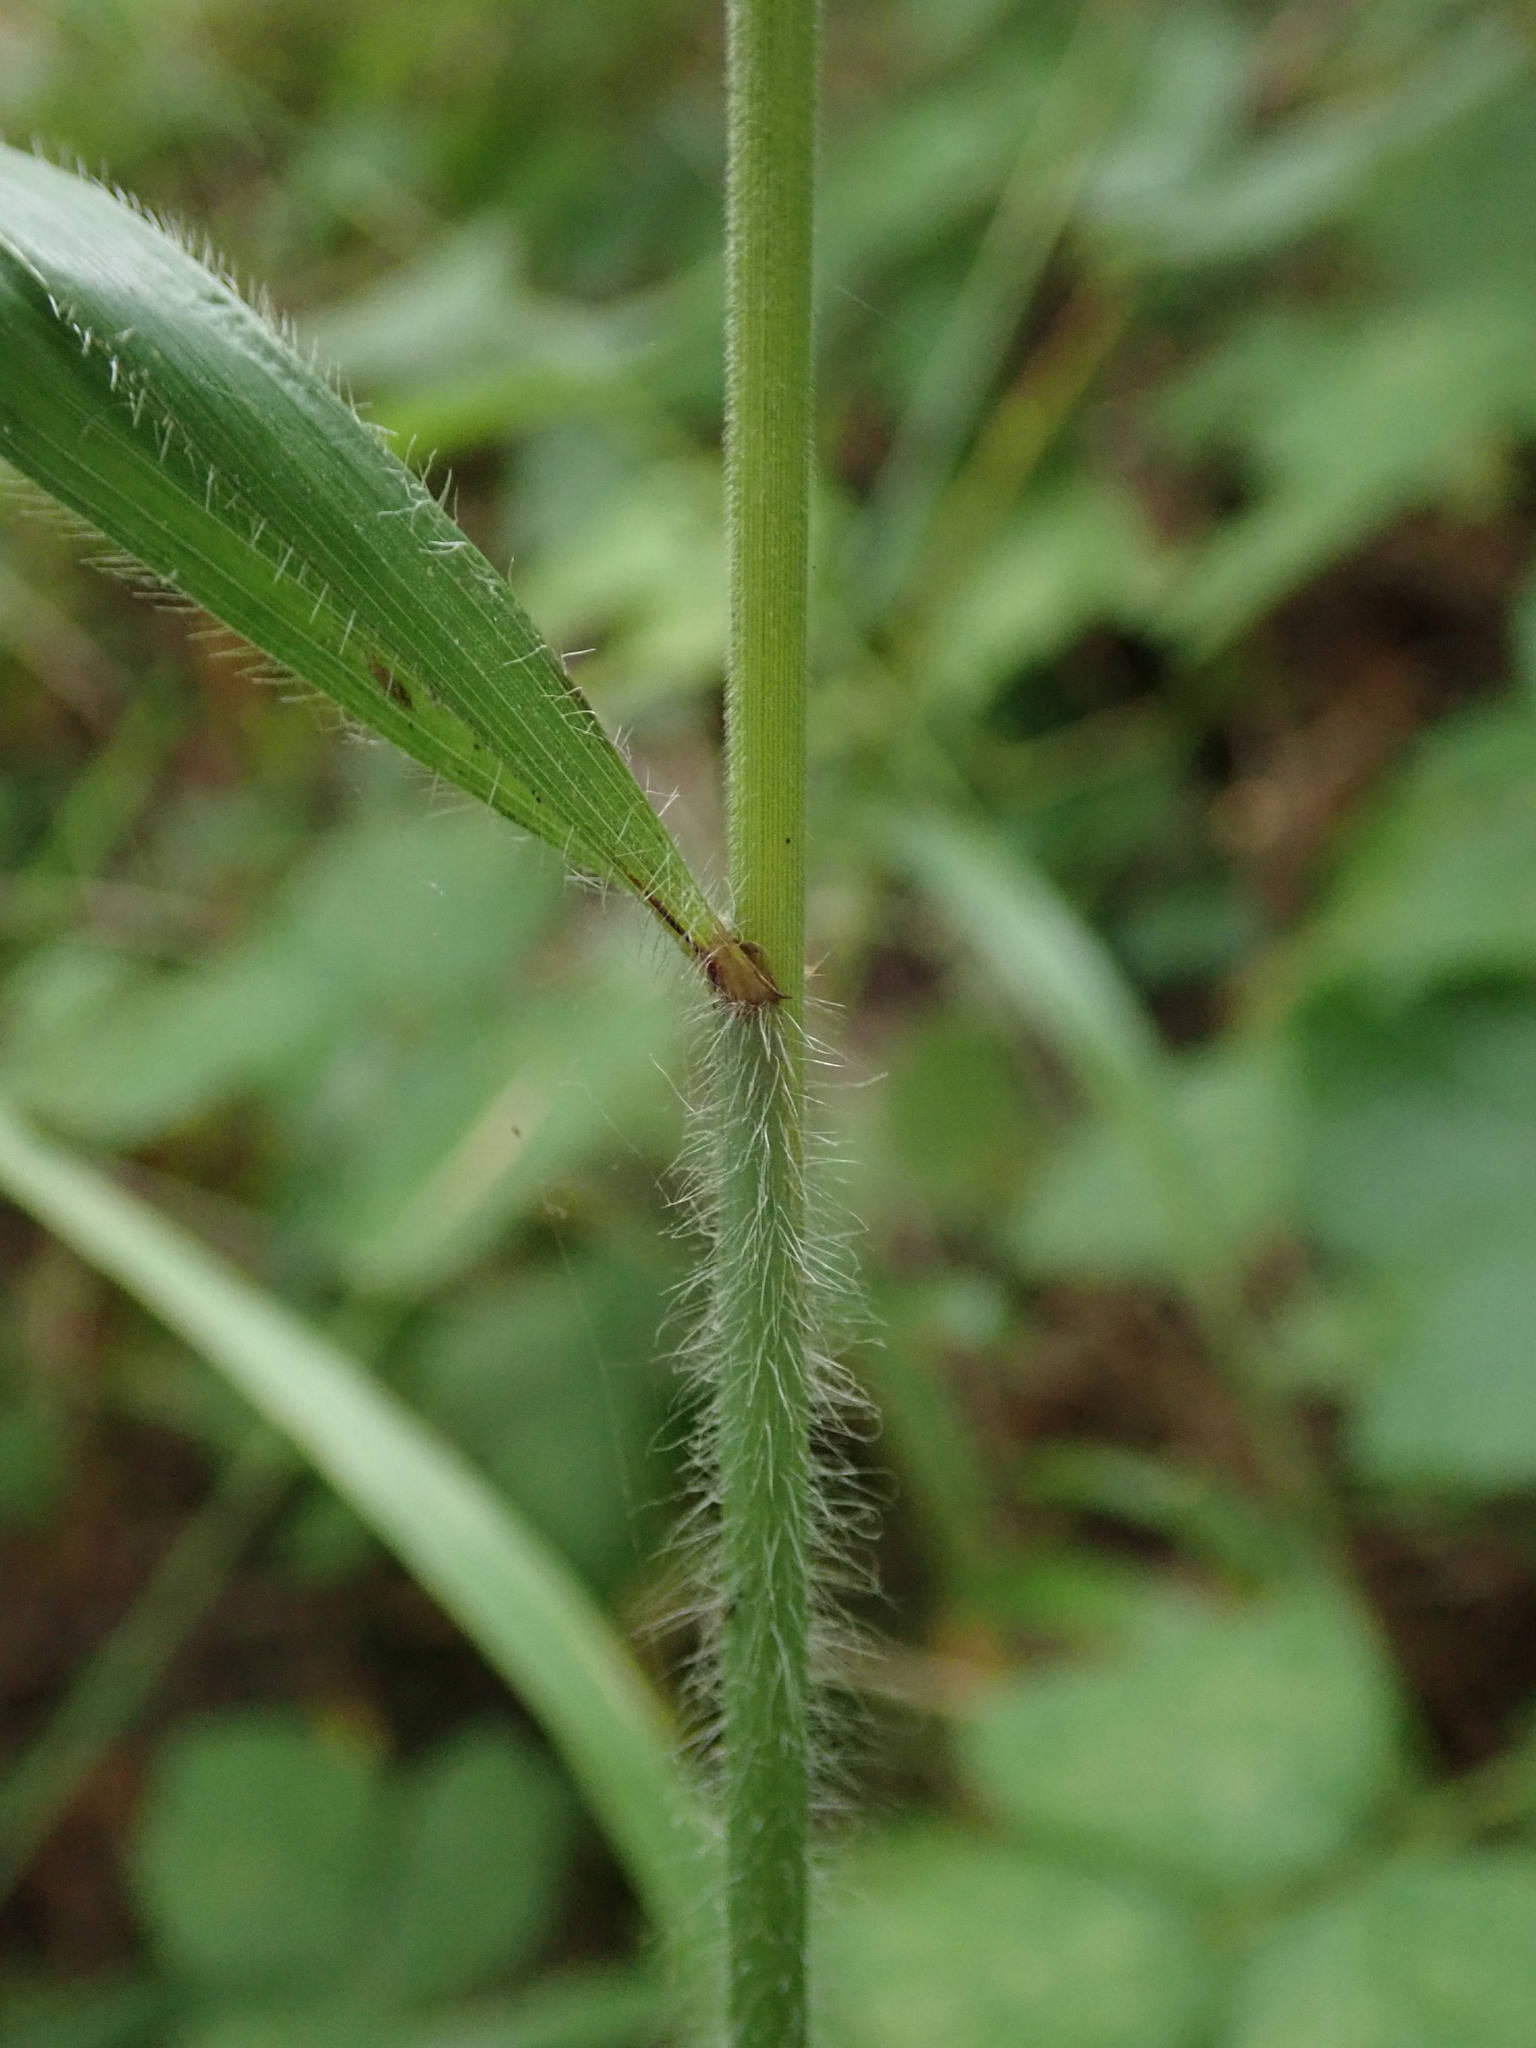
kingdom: Plantae
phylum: Tracheophyta
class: Liliopsida
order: Poales
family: Poaceae
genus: Bromus
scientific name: Bromus ramosus
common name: Hairy brome
